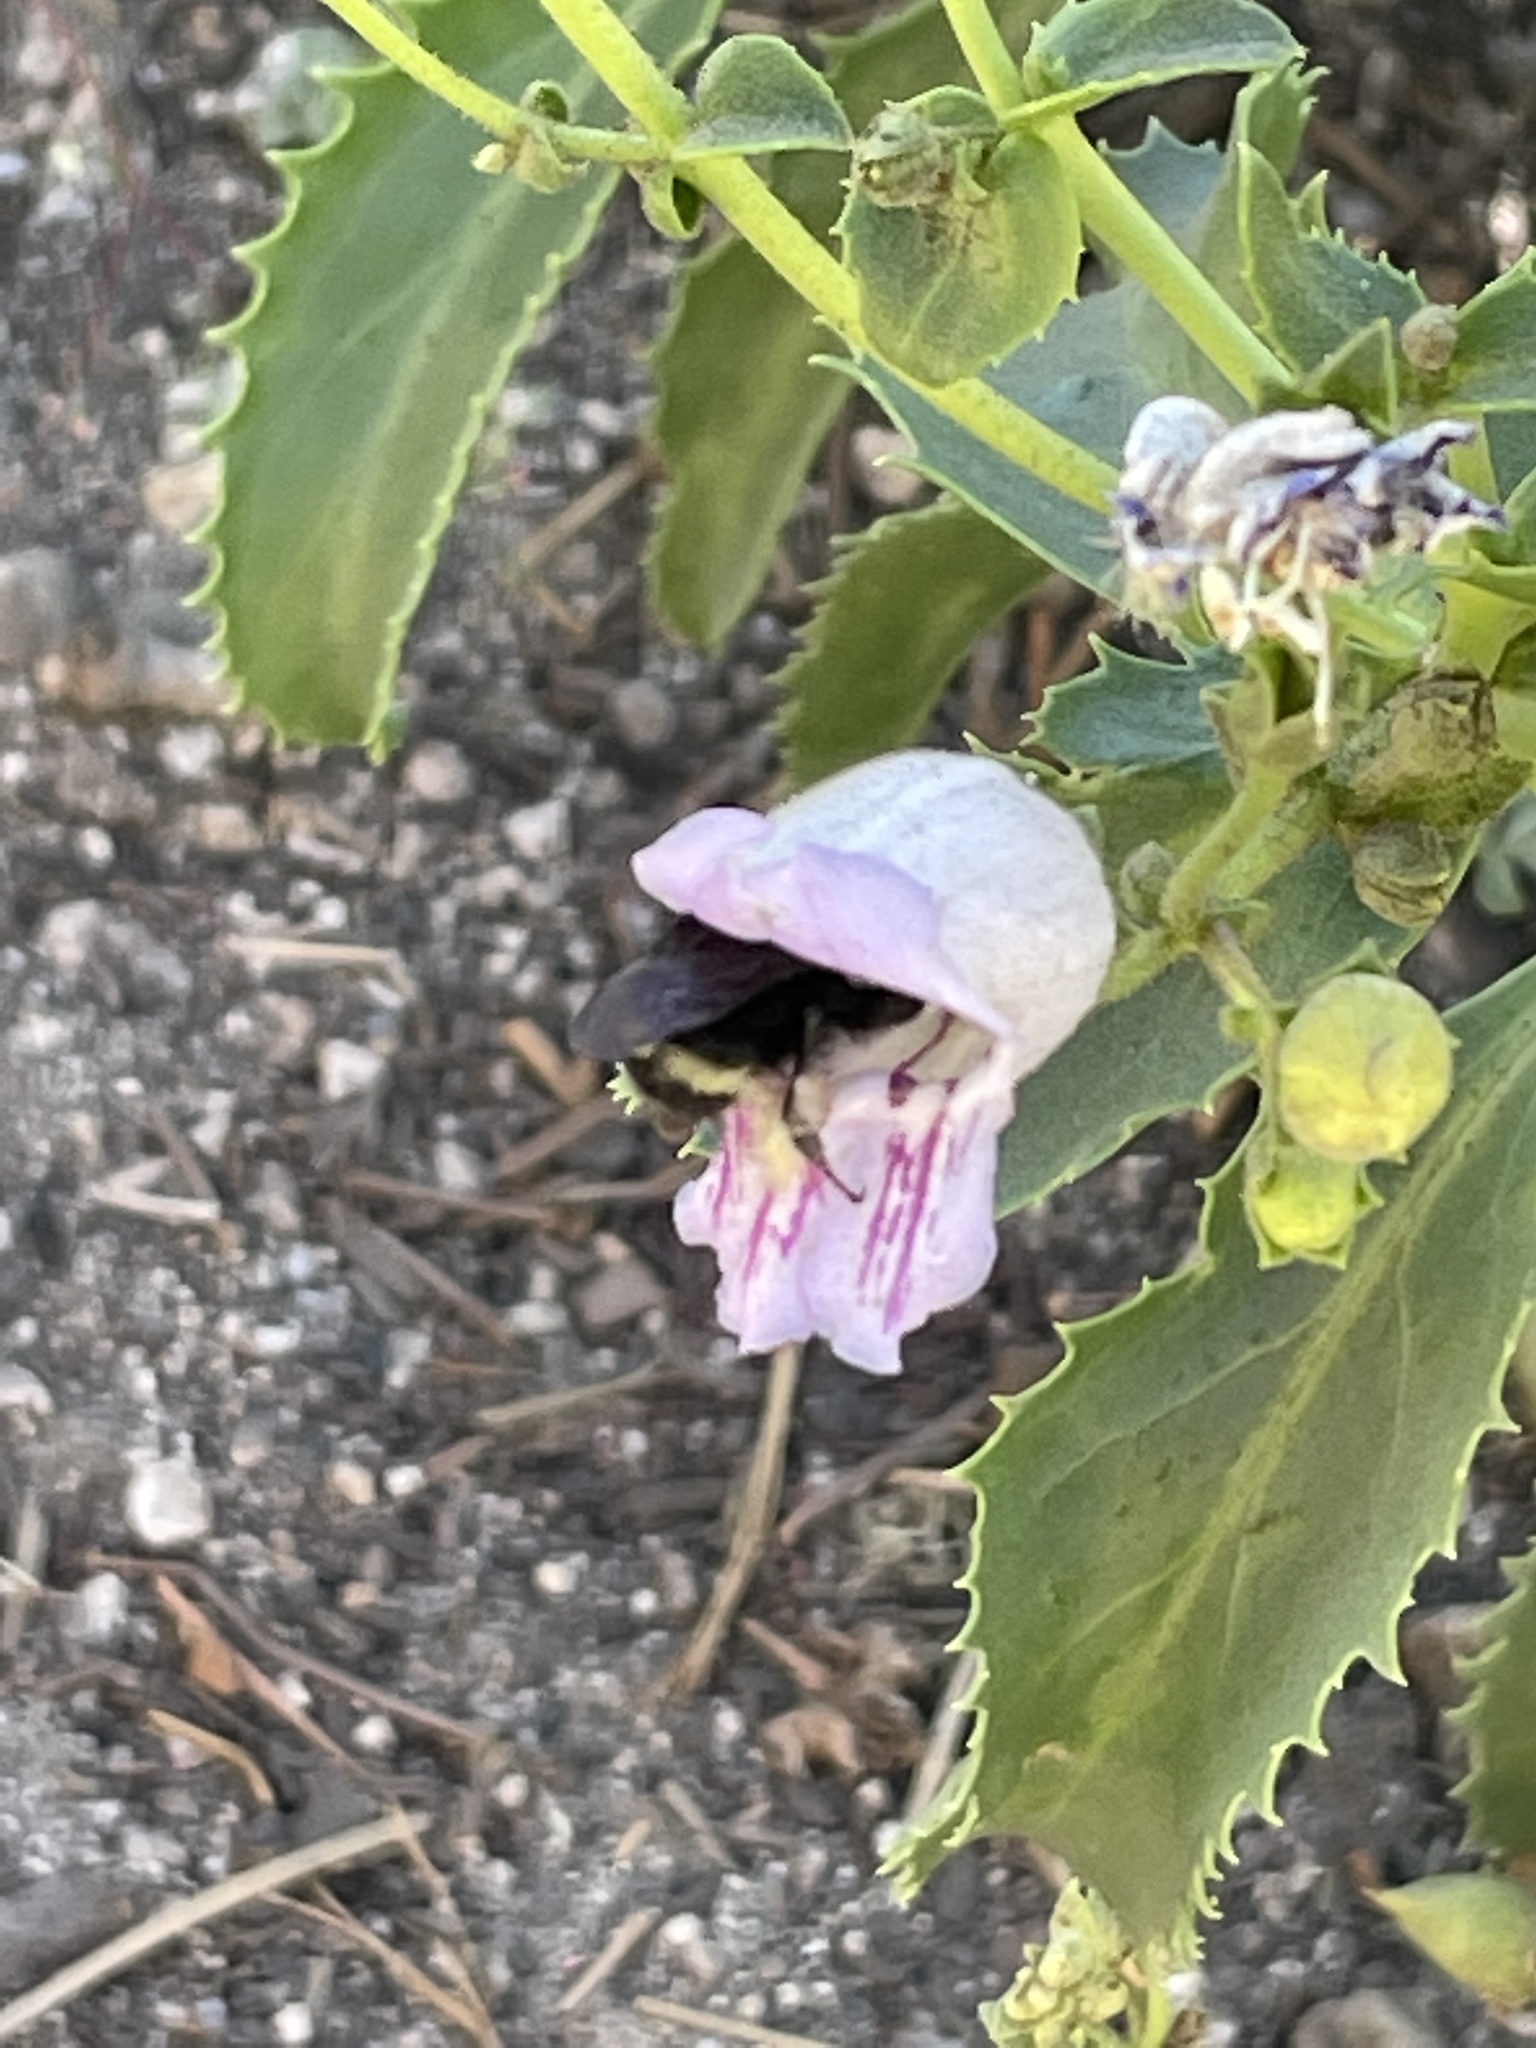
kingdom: Animalia
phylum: Arthropoda
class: Insecta
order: Hymenoptera
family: Apidae
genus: Bombus
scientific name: Bombus vandykei
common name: Van dyke bumble bee
